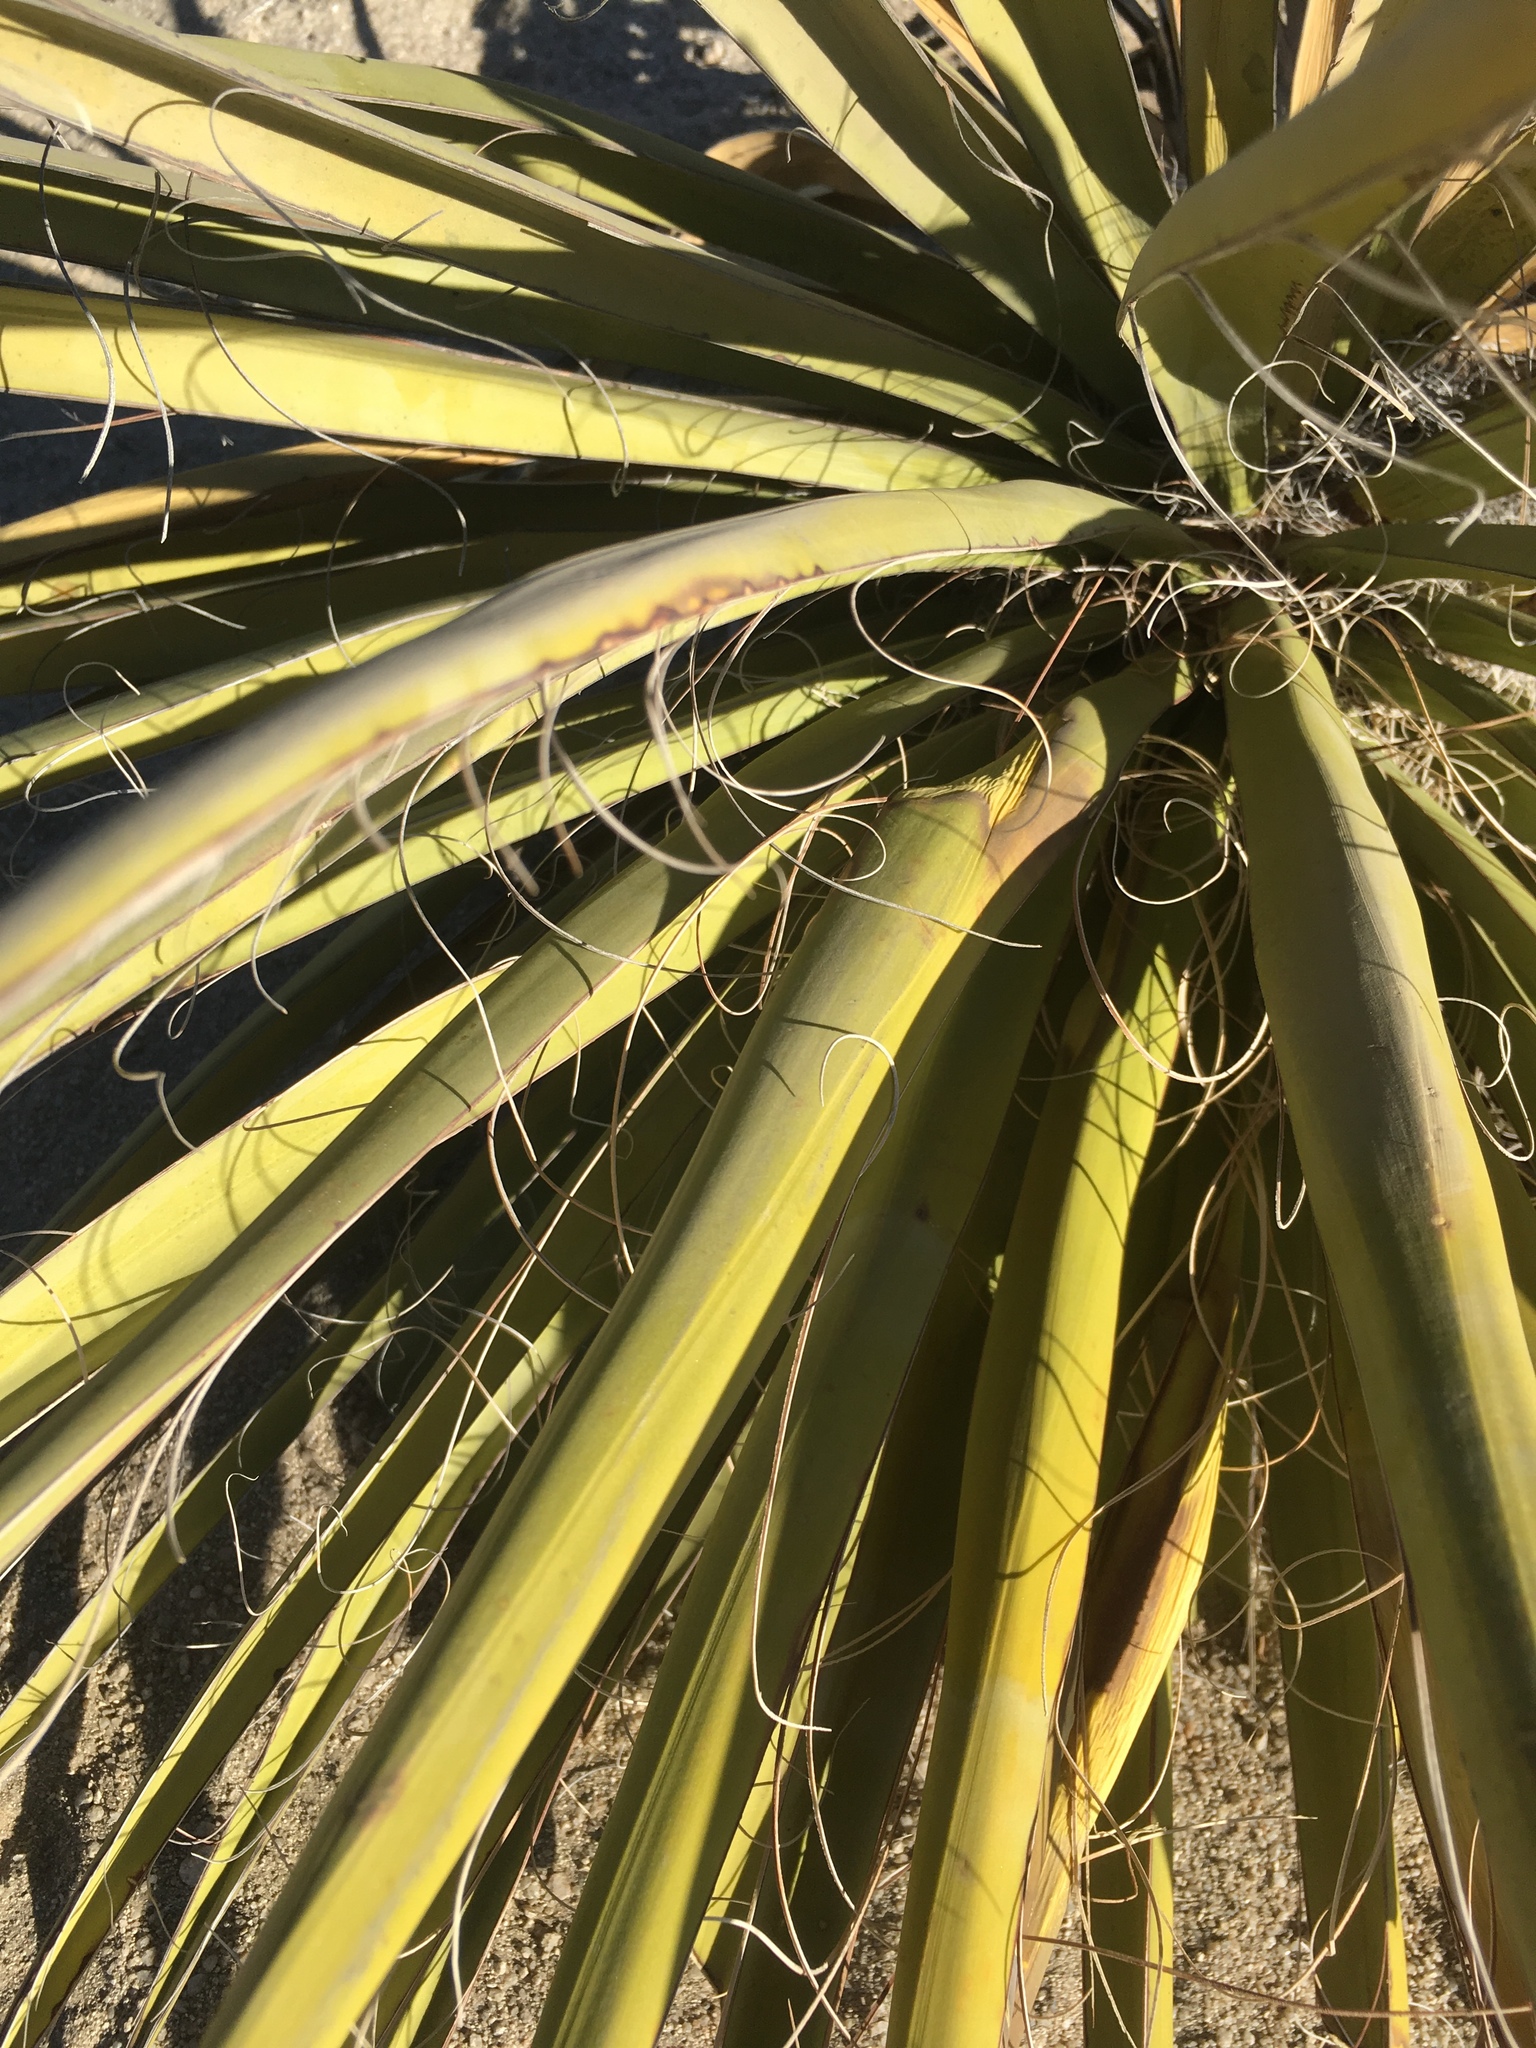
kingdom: Plantae
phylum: Tracheophyta
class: Liliopsida
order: Asparagales
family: Asparagaceae
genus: Yucca
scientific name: Yucca schidigera
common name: Mojave yucca
